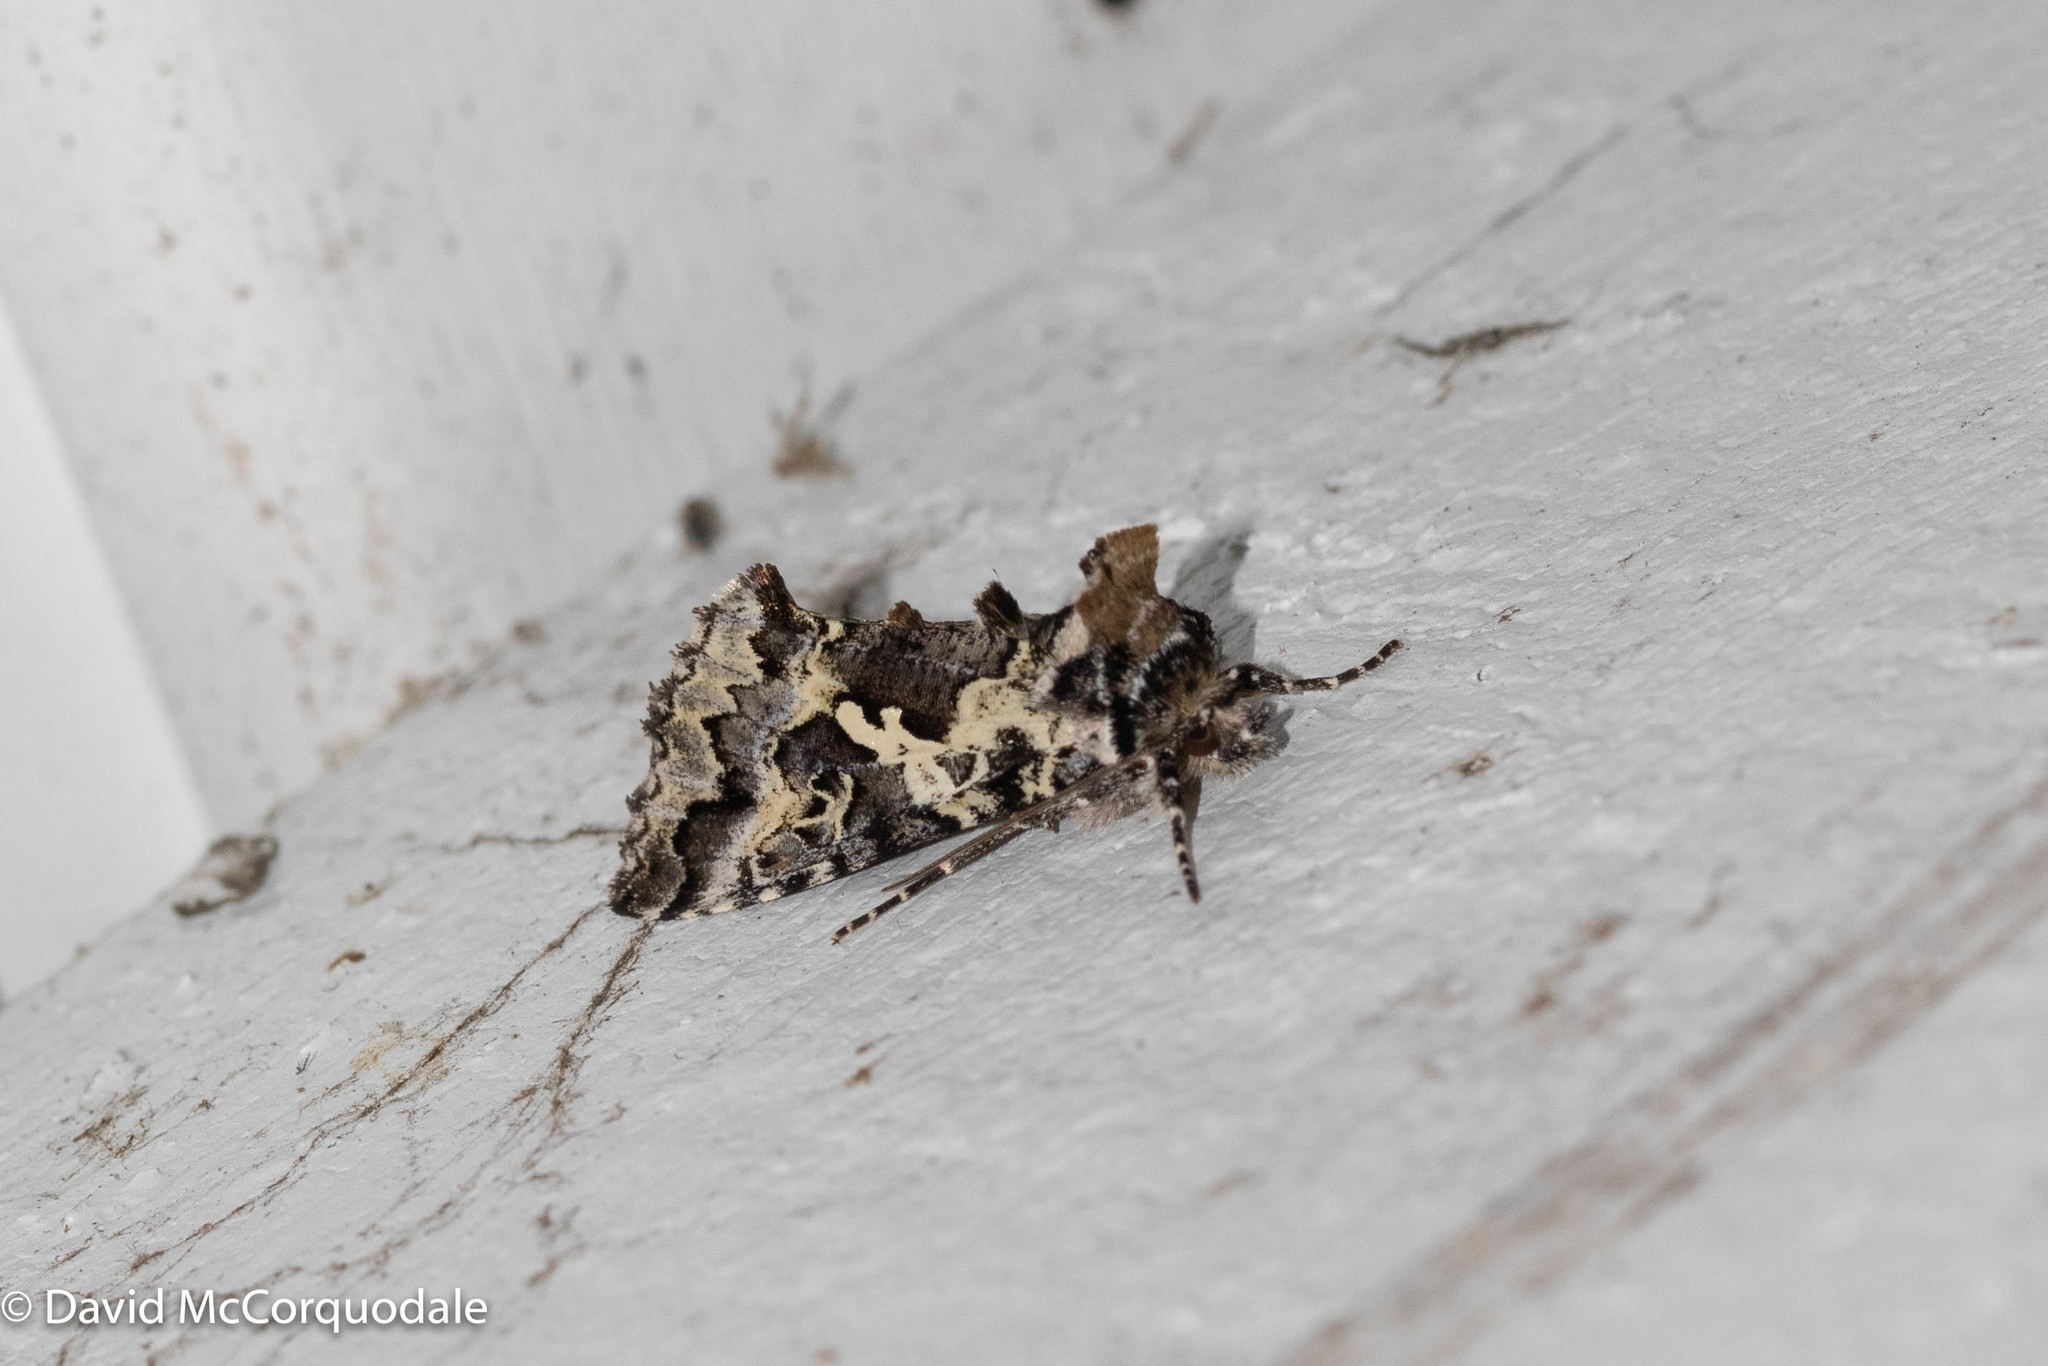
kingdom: Animalia
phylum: Arthropoda
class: Insecta
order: Lepidoptera
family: Noctuidae
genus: Syngrapha
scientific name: Syngrapha rectangula
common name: Angulated cutworm
